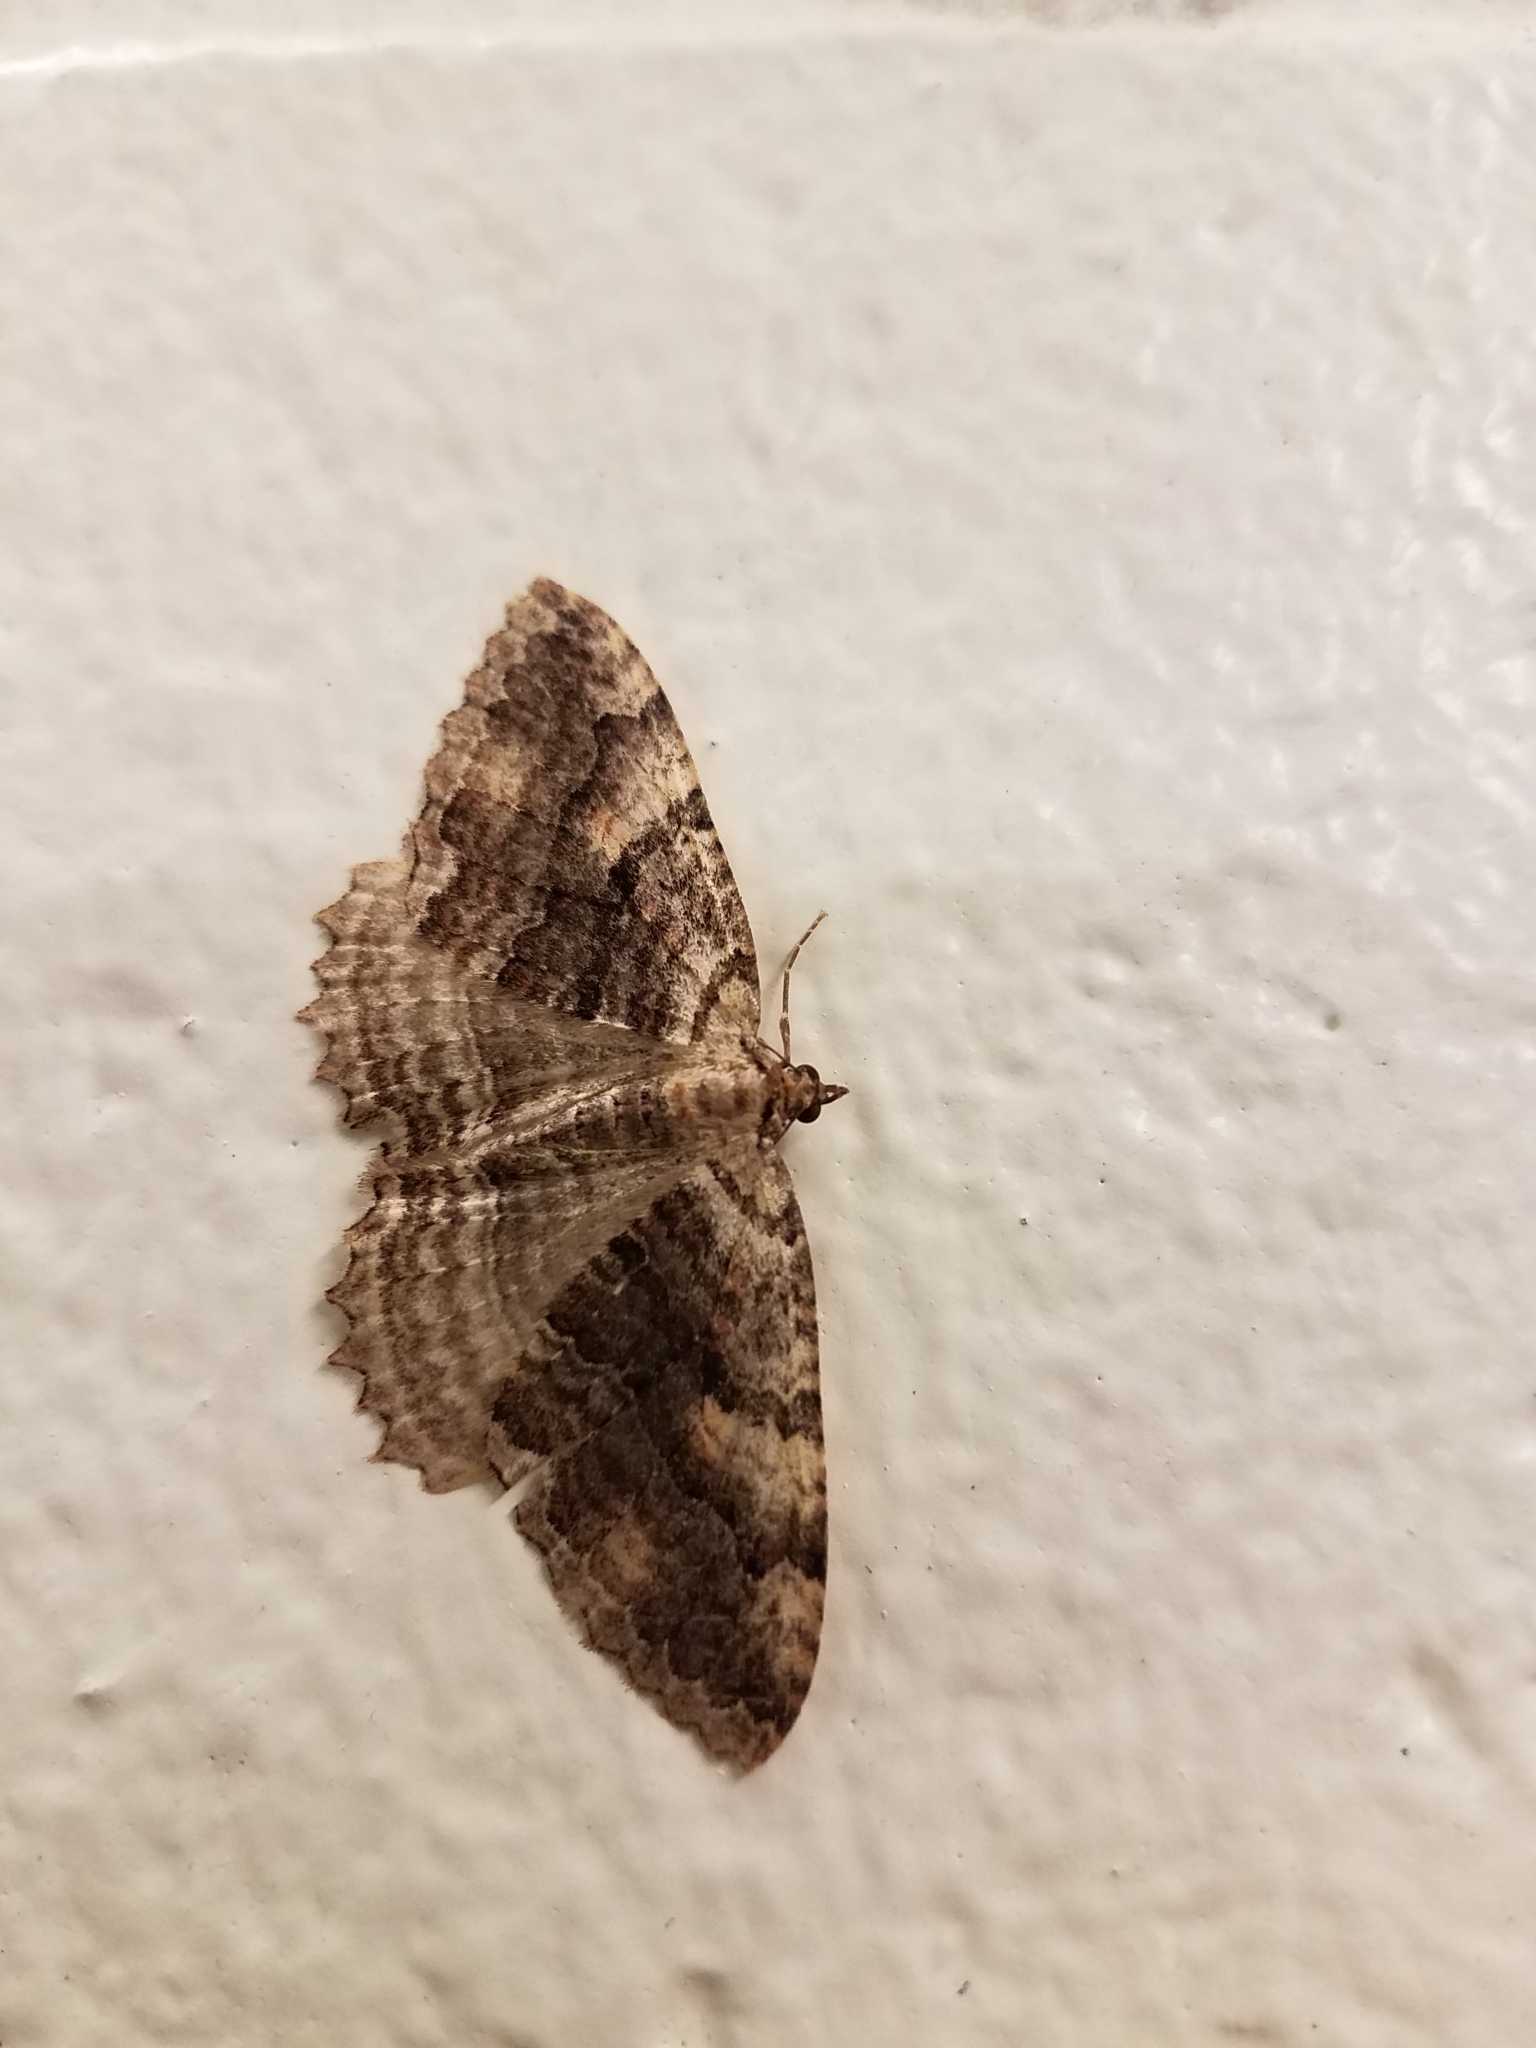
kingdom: Animalia
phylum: Arthropoda
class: Insecta
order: Lepidoptera
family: Geometridae
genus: Triphosa
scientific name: Triphosa haesitata
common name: Tissue moth
